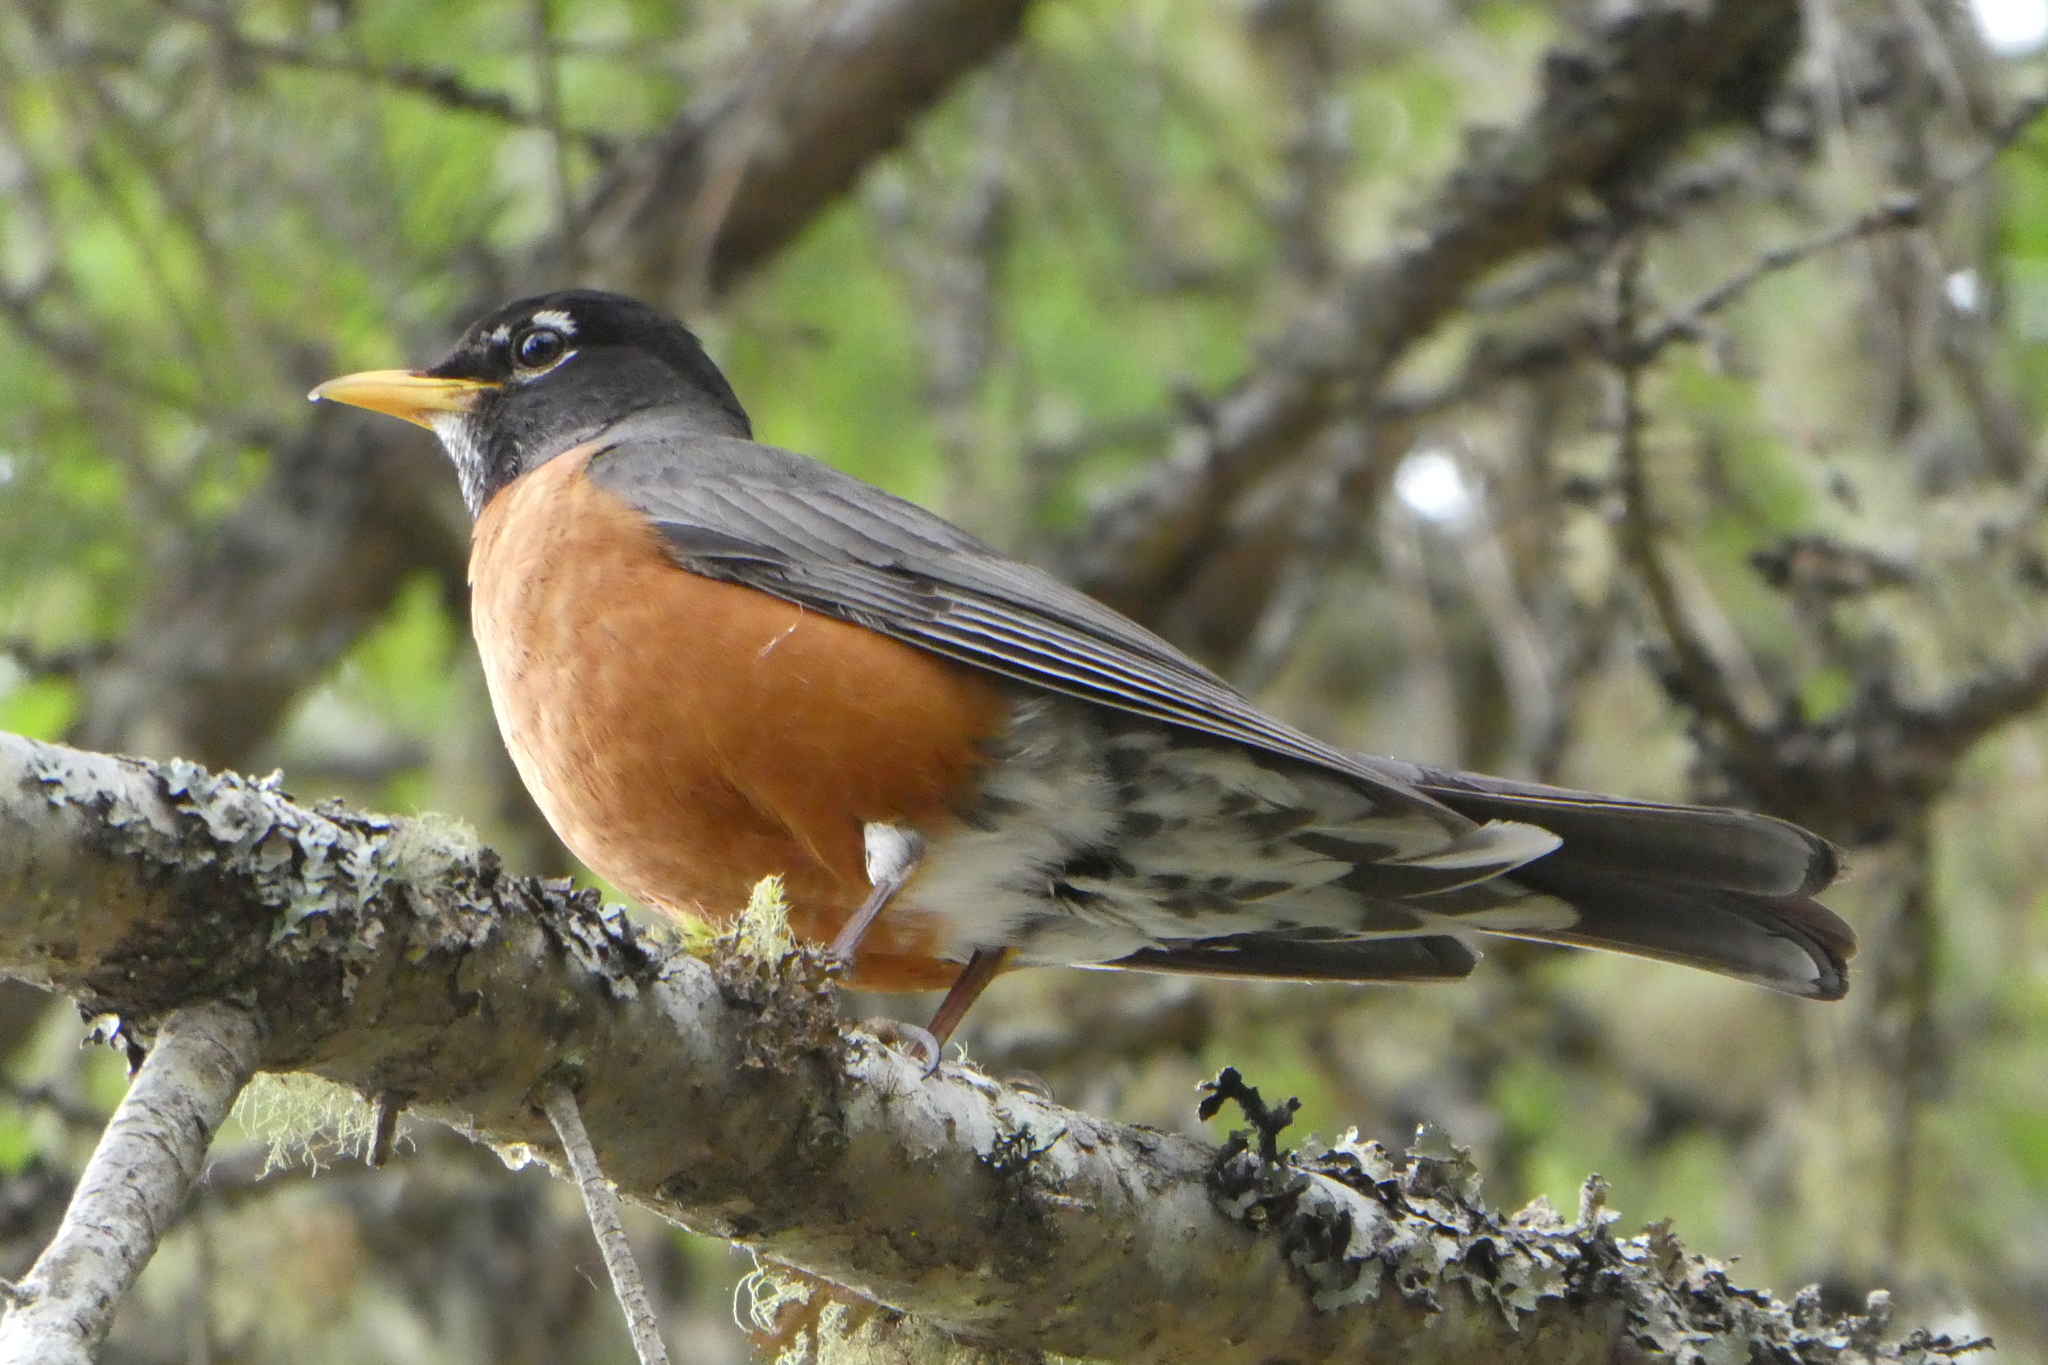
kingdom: Animalia
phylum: Chordata
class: Aves
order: Passeriformes
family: Turdidae
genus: Turdus
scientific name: Turdus migratorius
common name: American robin
